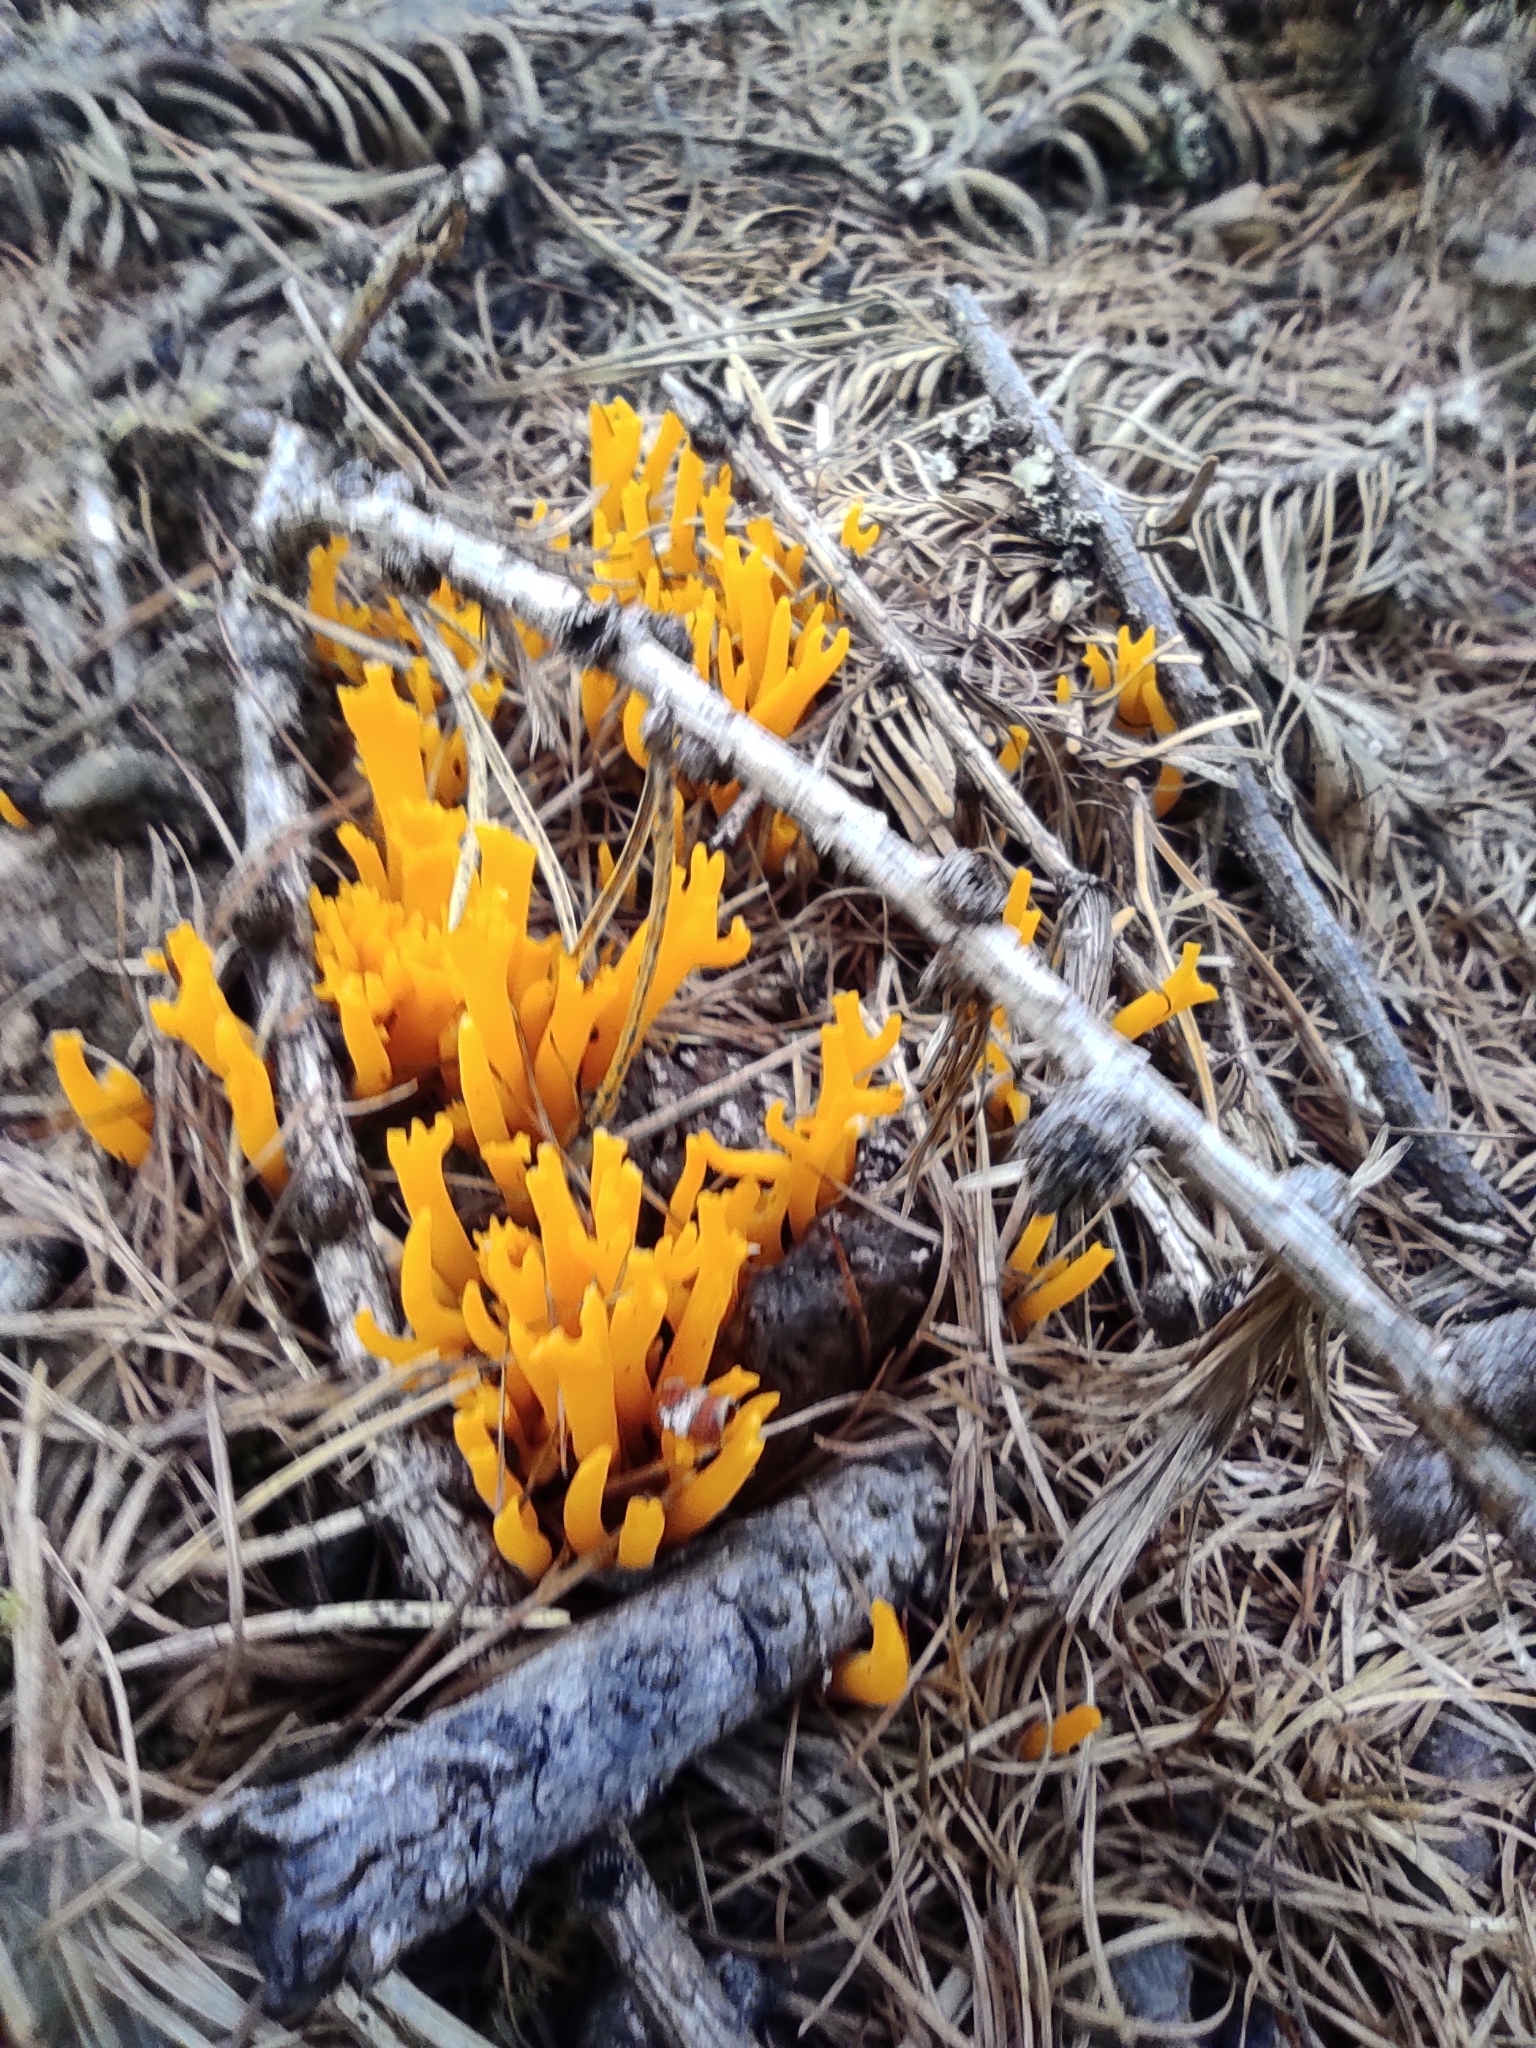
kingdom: Fungi
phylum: Basidiomycota
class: Dacrymycetes
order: Dacrymycetales
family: Dacrymycetaceae
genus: Calocera
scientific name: Calocera viscosa
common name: Yellow stagshorn
